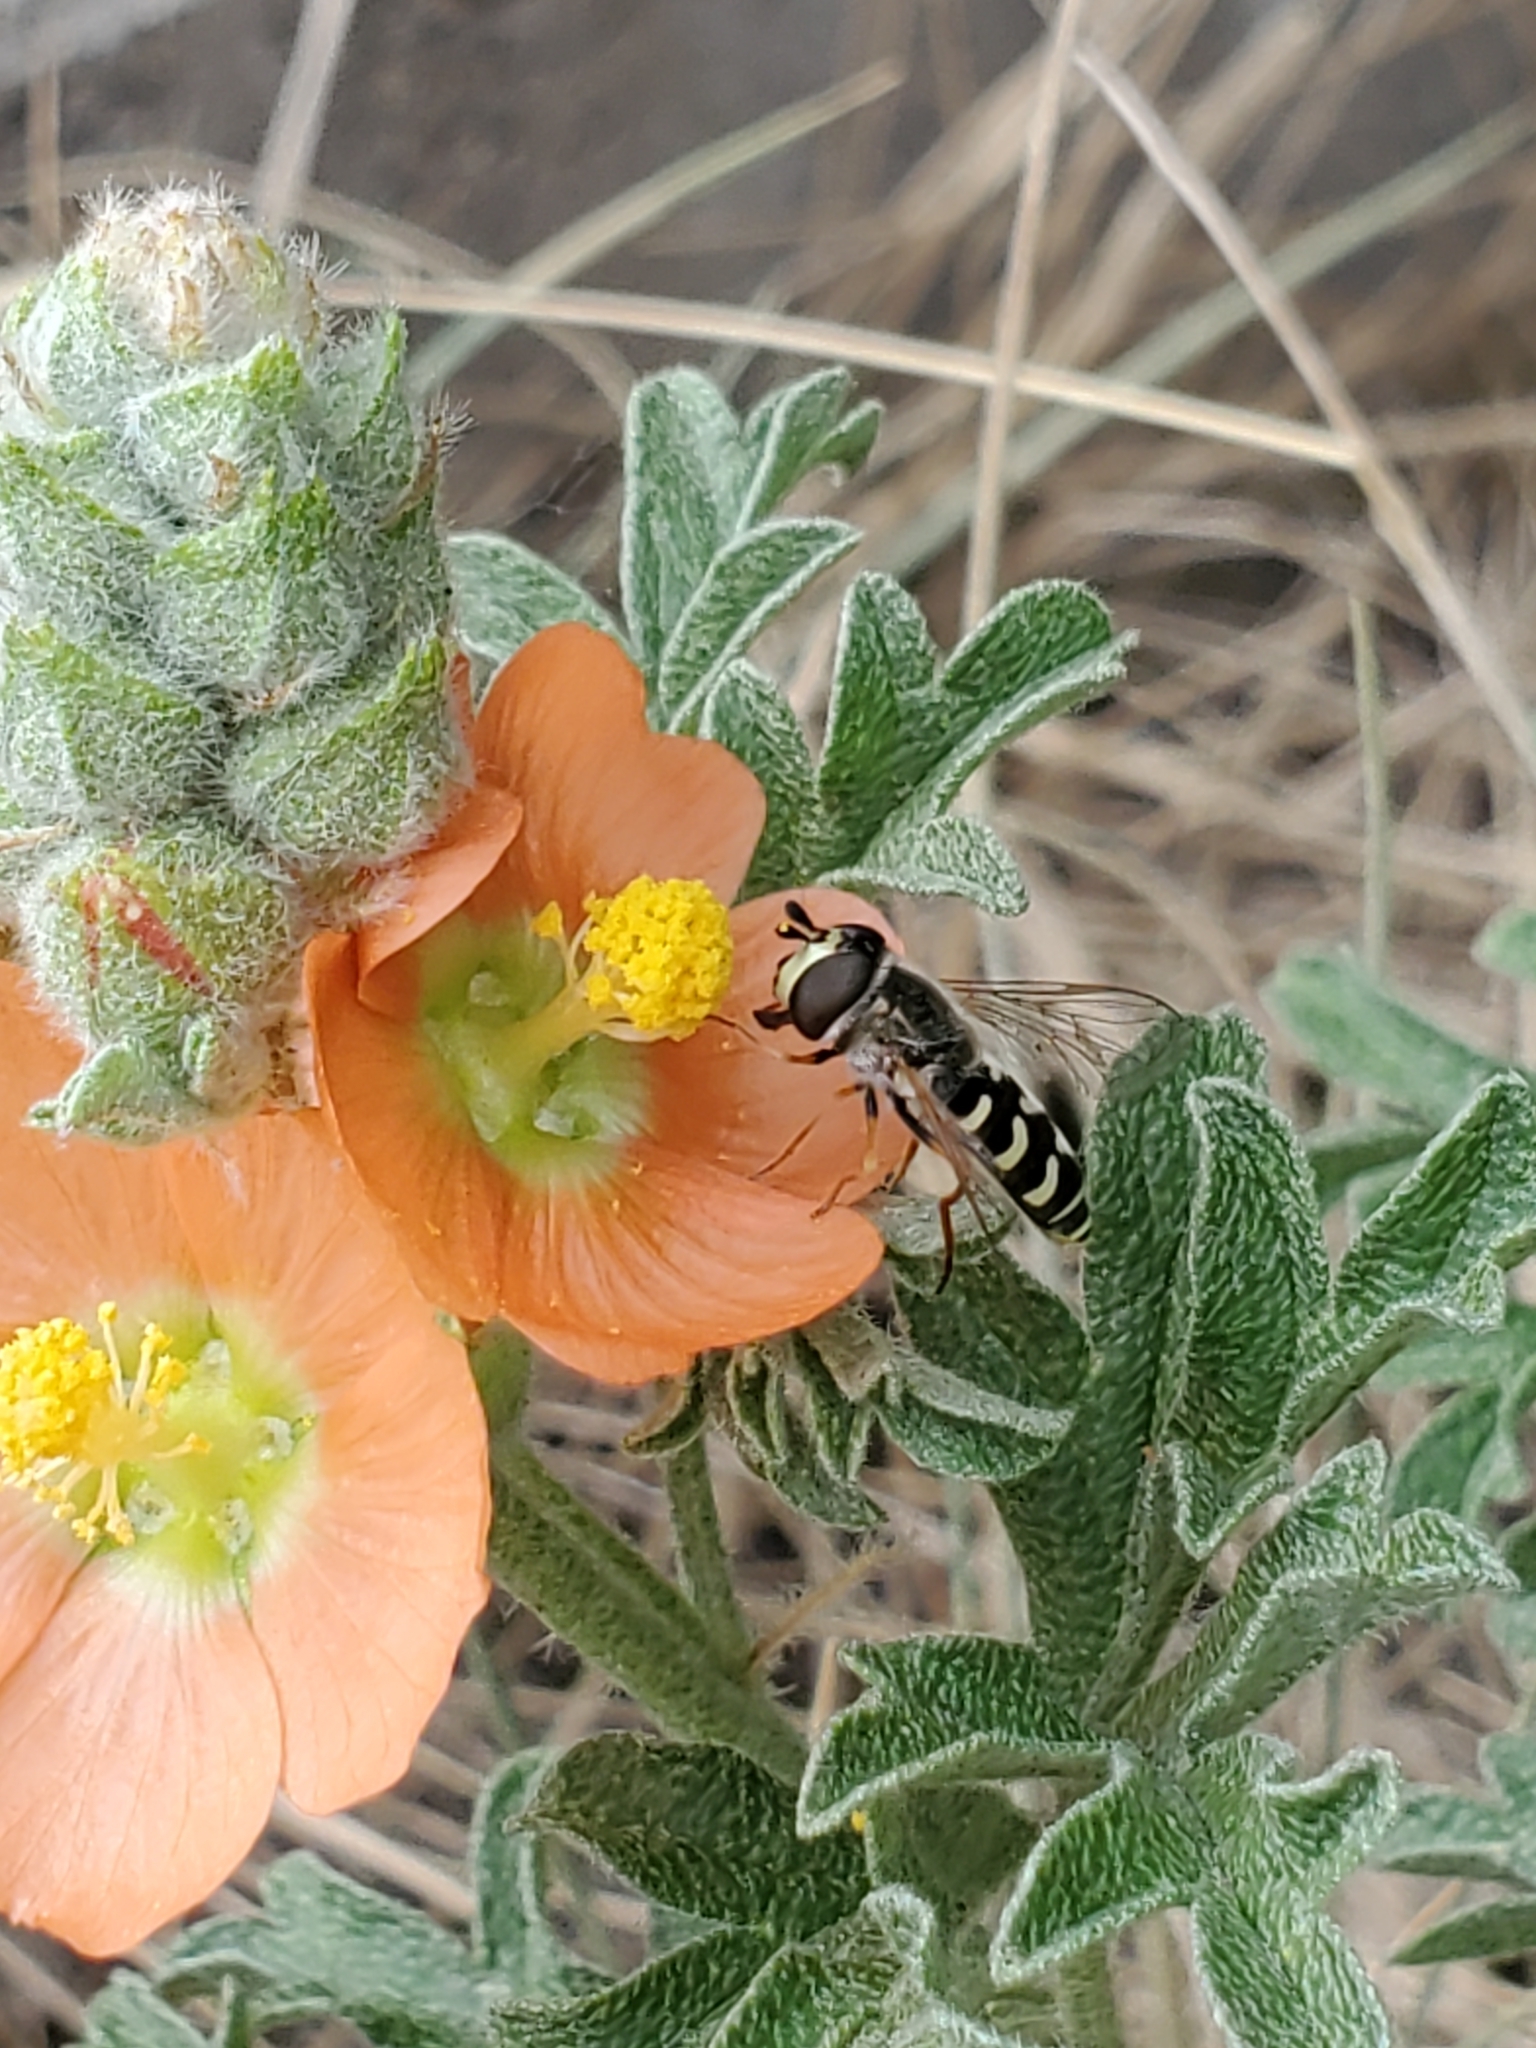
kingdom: Animalia
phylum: Arthropoda
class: Insecta
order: Diptera
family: Syrphidae
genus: Eupeodes
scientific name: Eupeodes volucris
